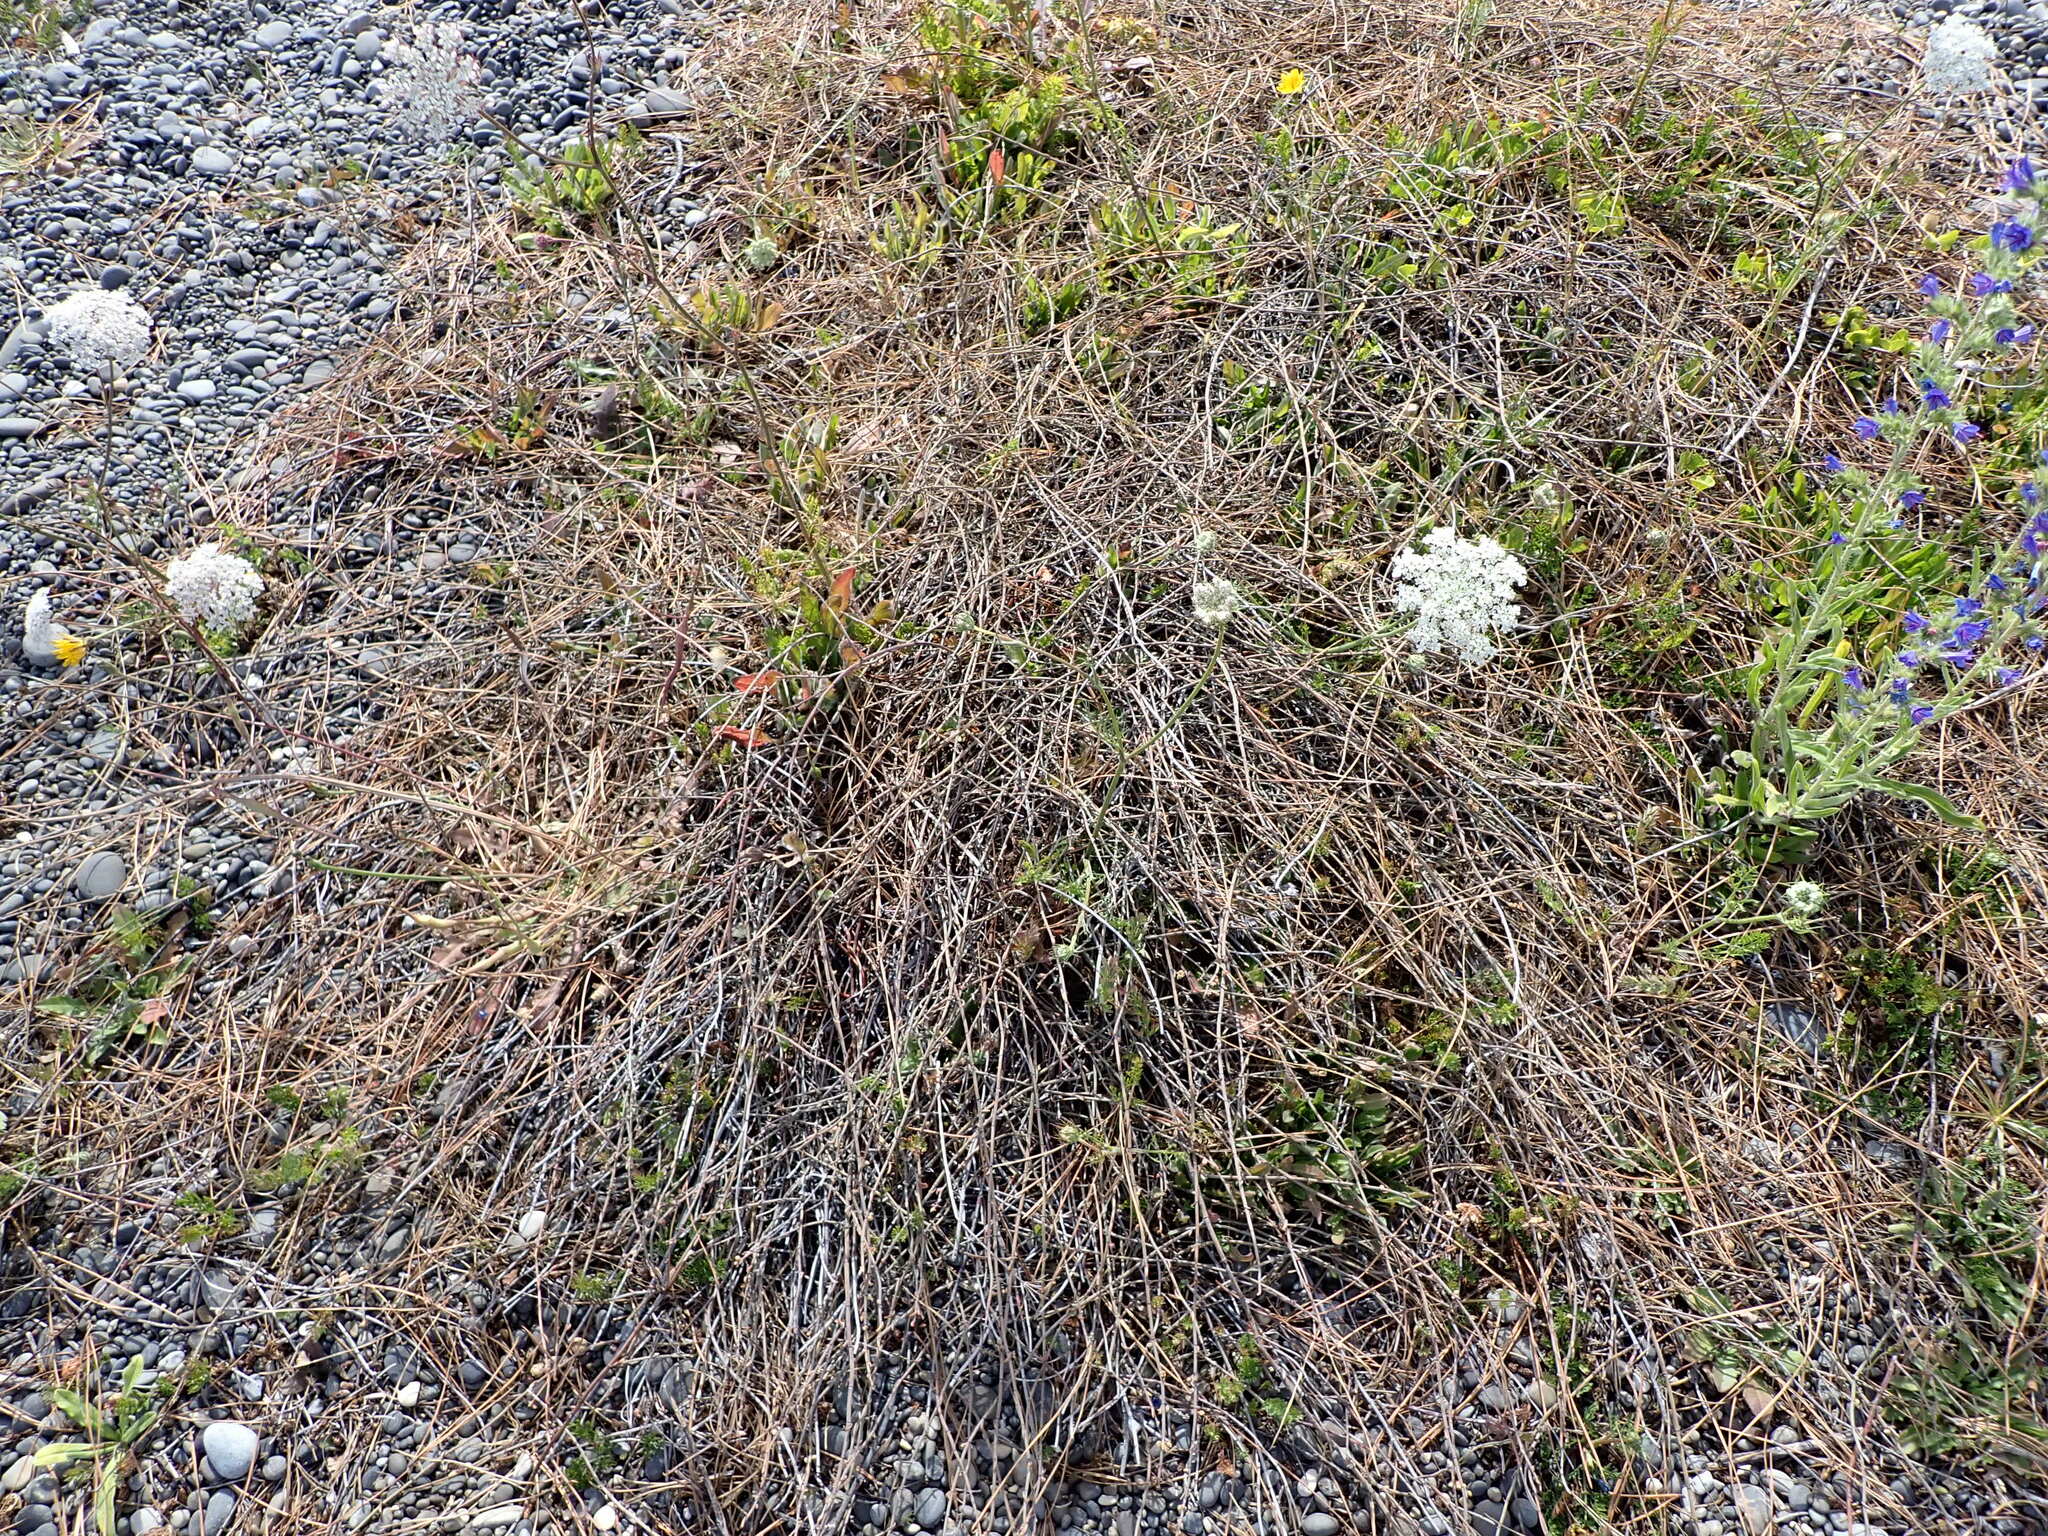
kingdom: Plantae
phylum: Tracheophyta
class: Magnoliopsida
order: Caryophyllales
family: Polygonaceae
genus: Muehlenbeckia
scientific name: Muehlenbeckia ephedroides
